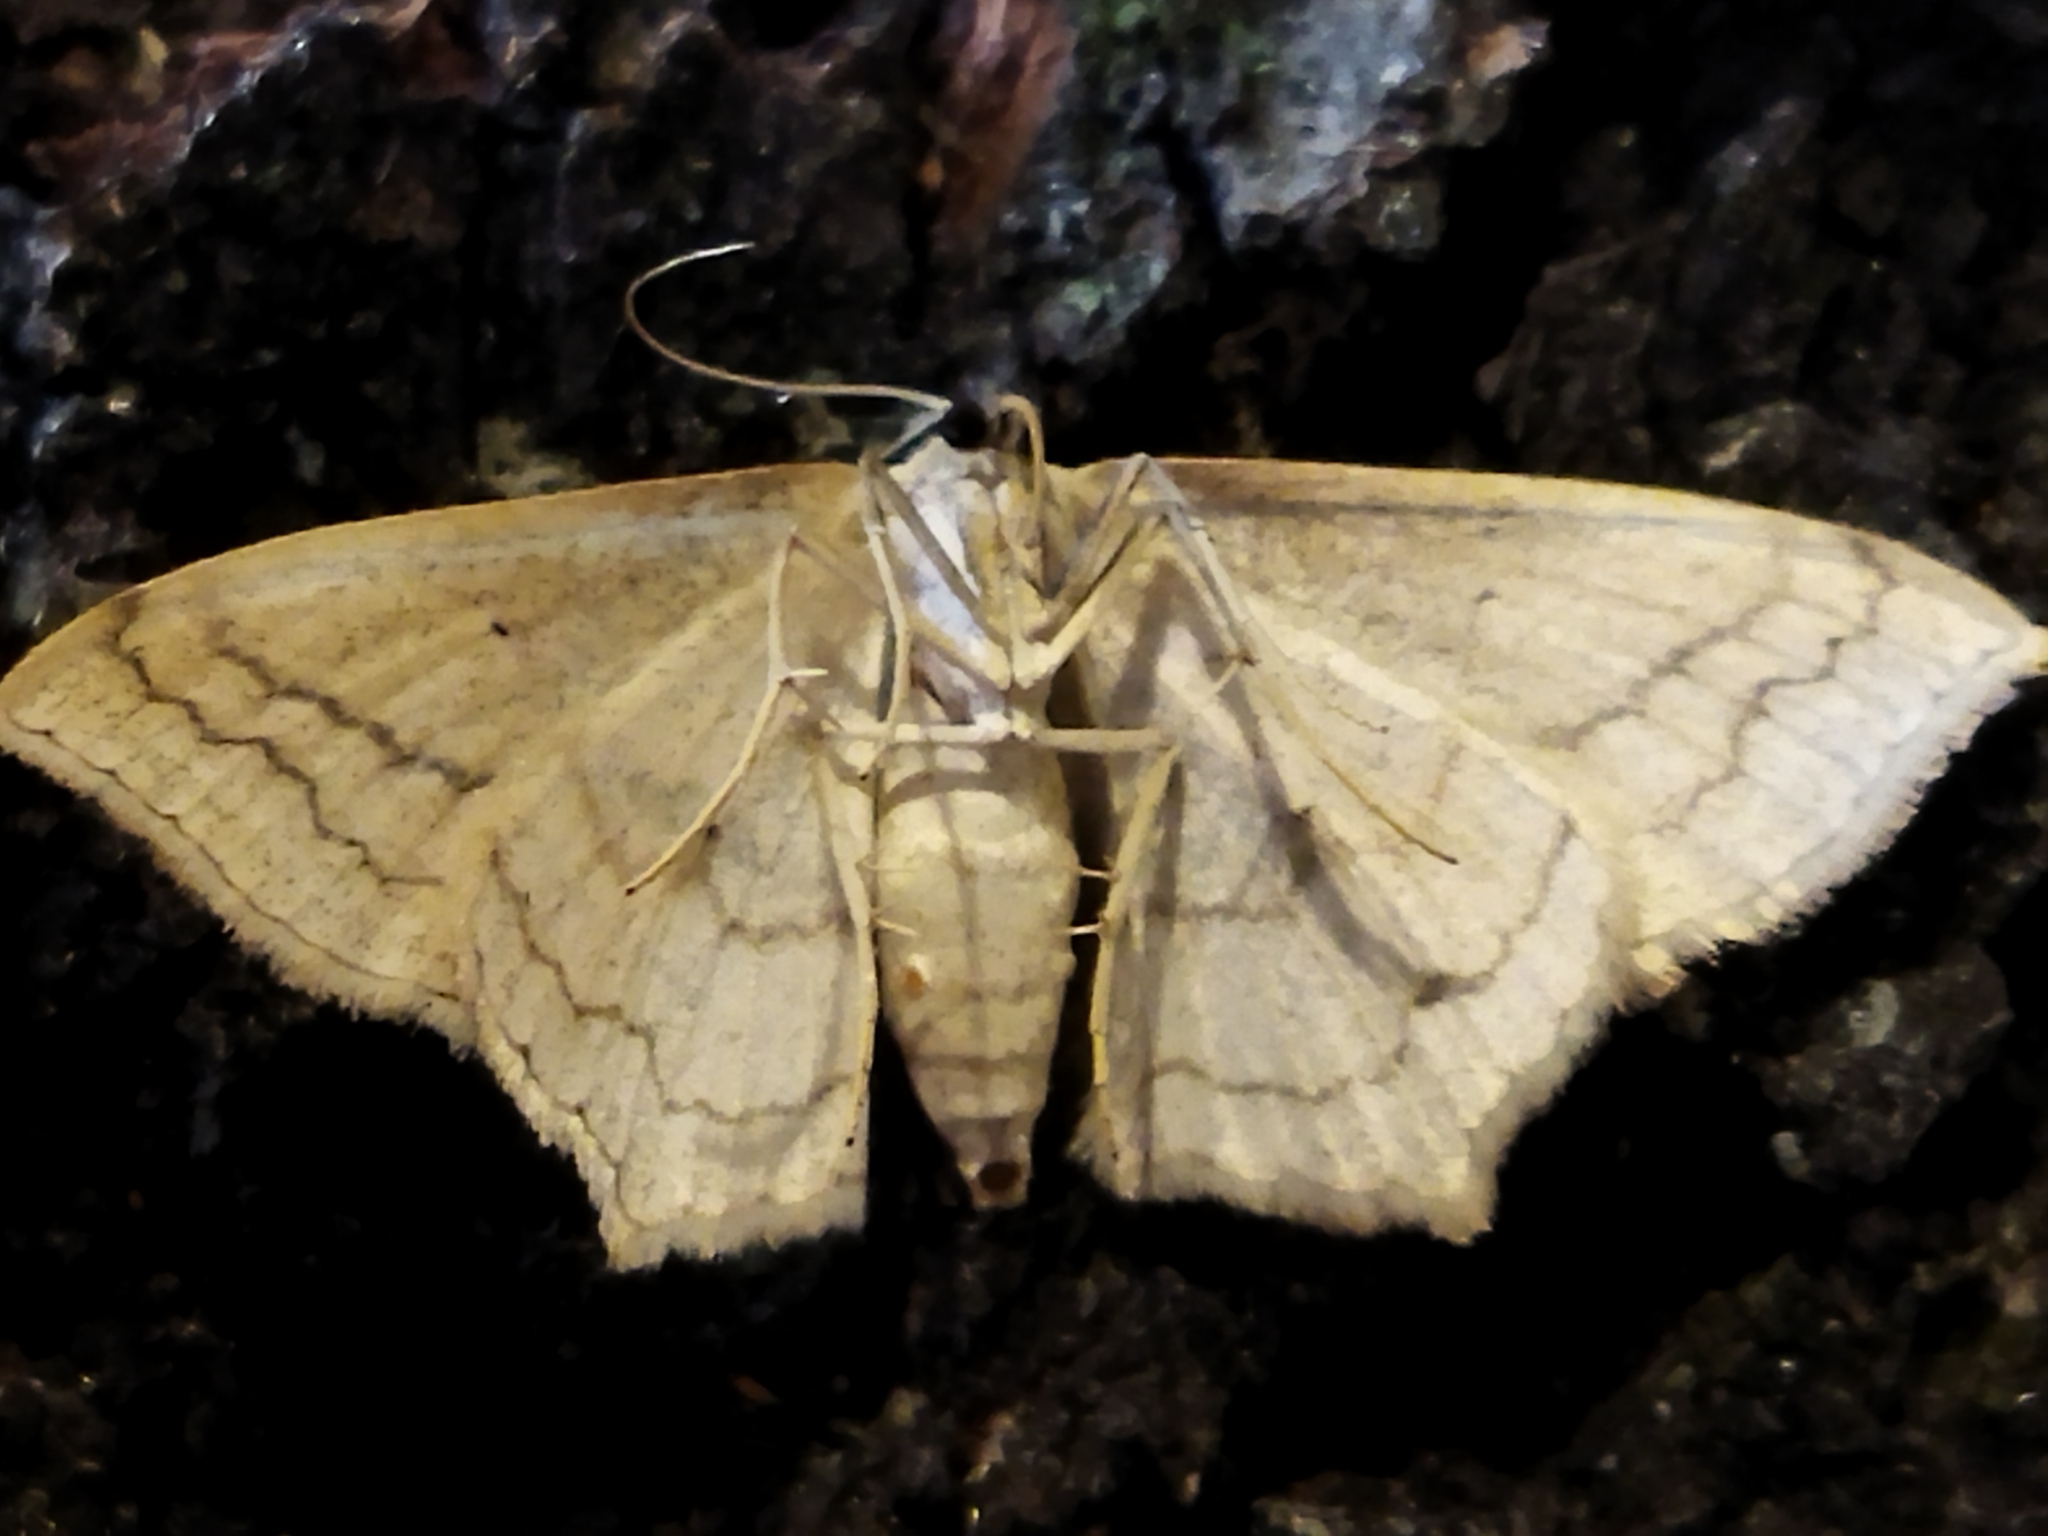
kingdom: Animalia
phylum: Arthropoda
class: Insecta
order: Lepidoptera
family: Geometridae
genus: Scopula
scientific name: Scopula imitaria
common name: Small blood-vein
